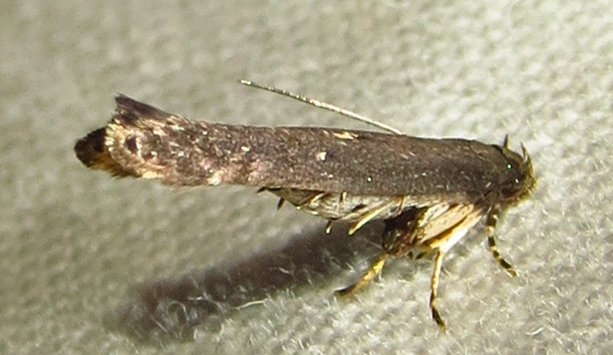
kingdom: Animalia
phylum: Arthropoda
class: Insecta
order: Lepidoptera
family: Cosmopterigidae
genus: Ithome
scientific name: Ithome erransella
